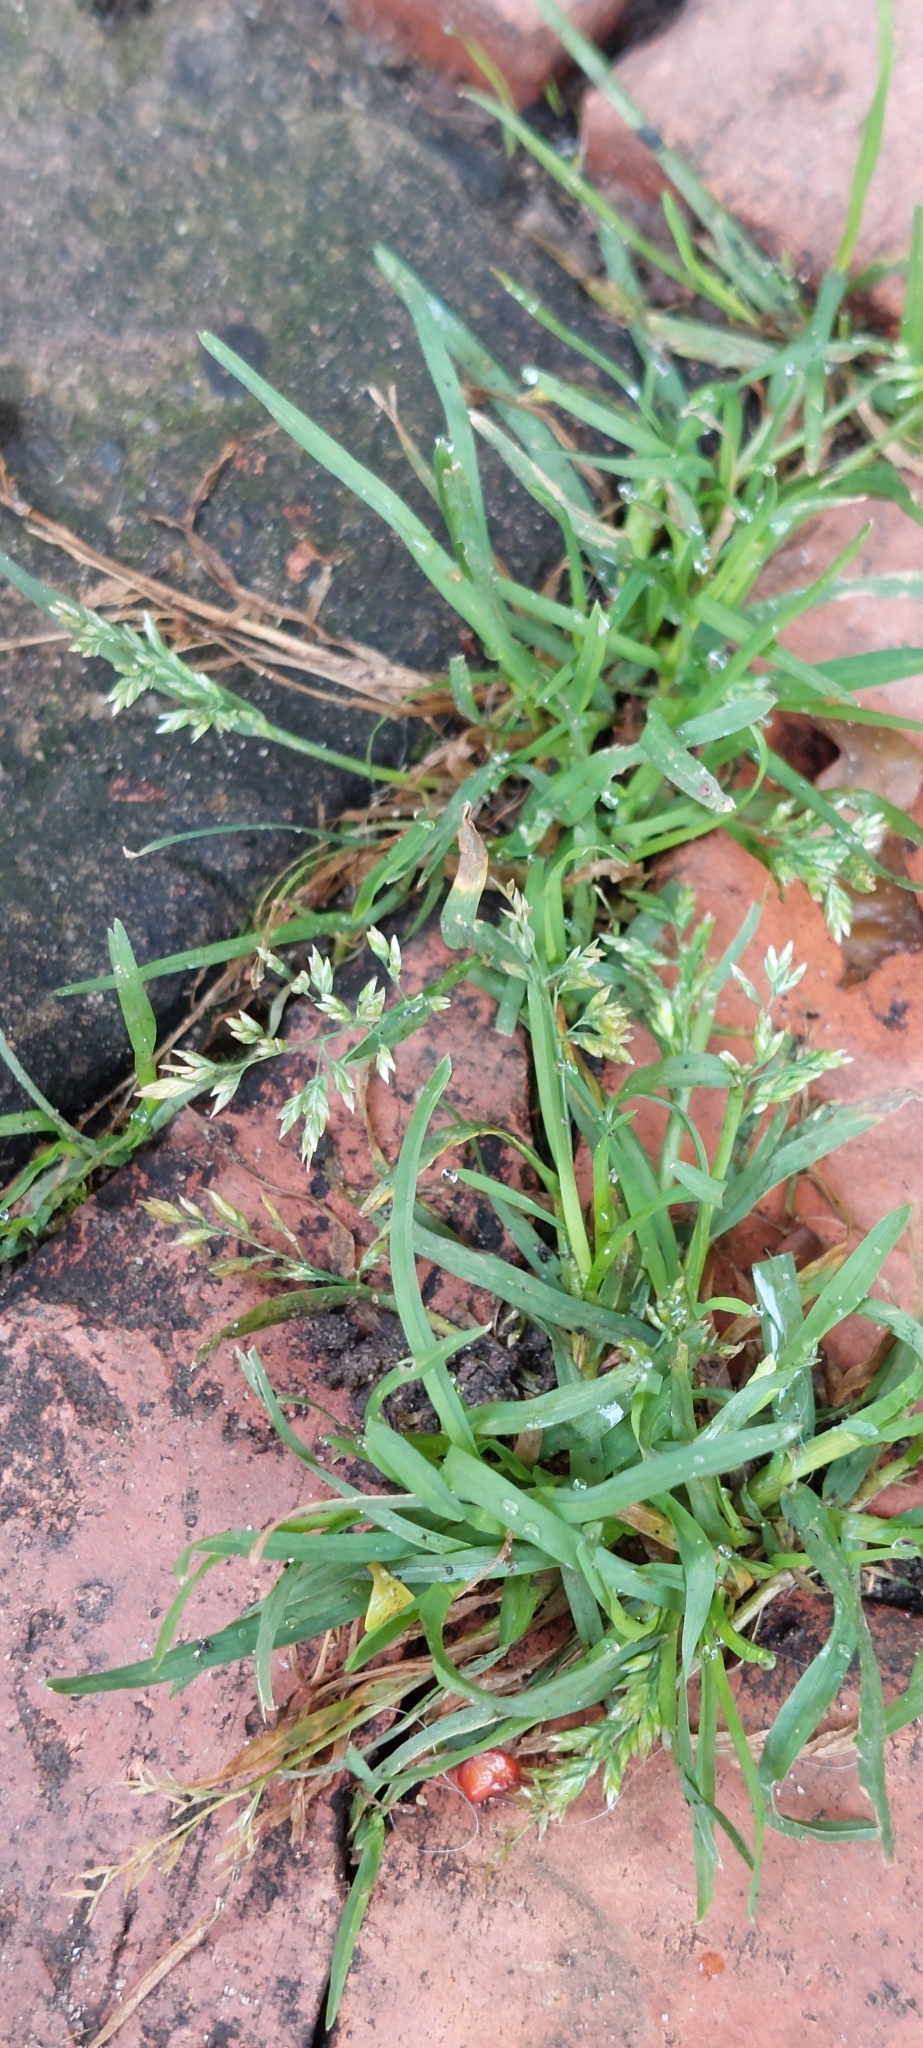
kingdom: Plantae
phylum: Tracheophyta
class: Liliopsida
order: Poales
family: Poaceae
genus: Poa
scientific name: Poa annua
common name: Annual bluegrass
